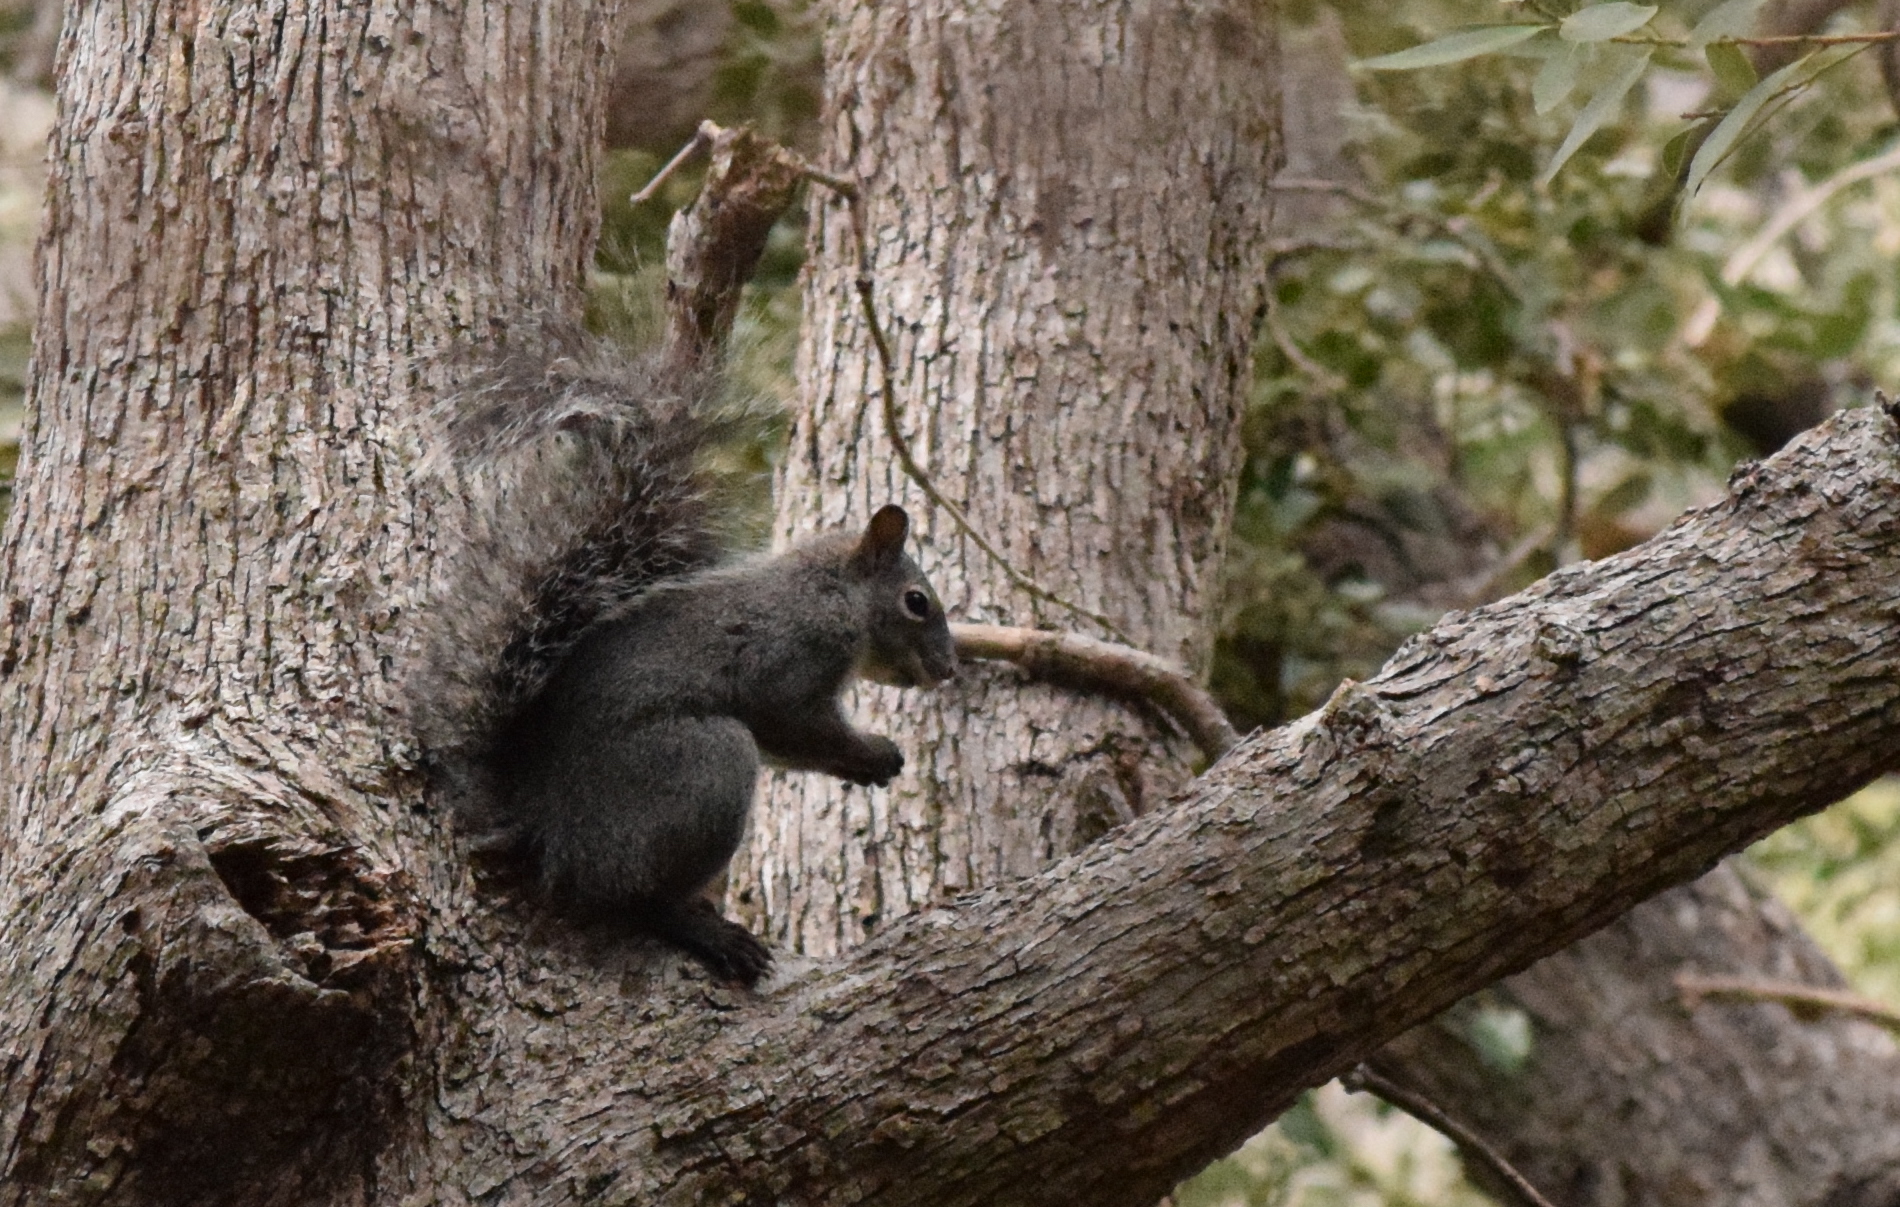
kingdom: Animalia
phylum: Chordata
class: Mammalia
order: Rodentia
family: Sciuridae
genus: Sciurus
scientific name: Sciurus griseus
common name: Western gray squirrel
